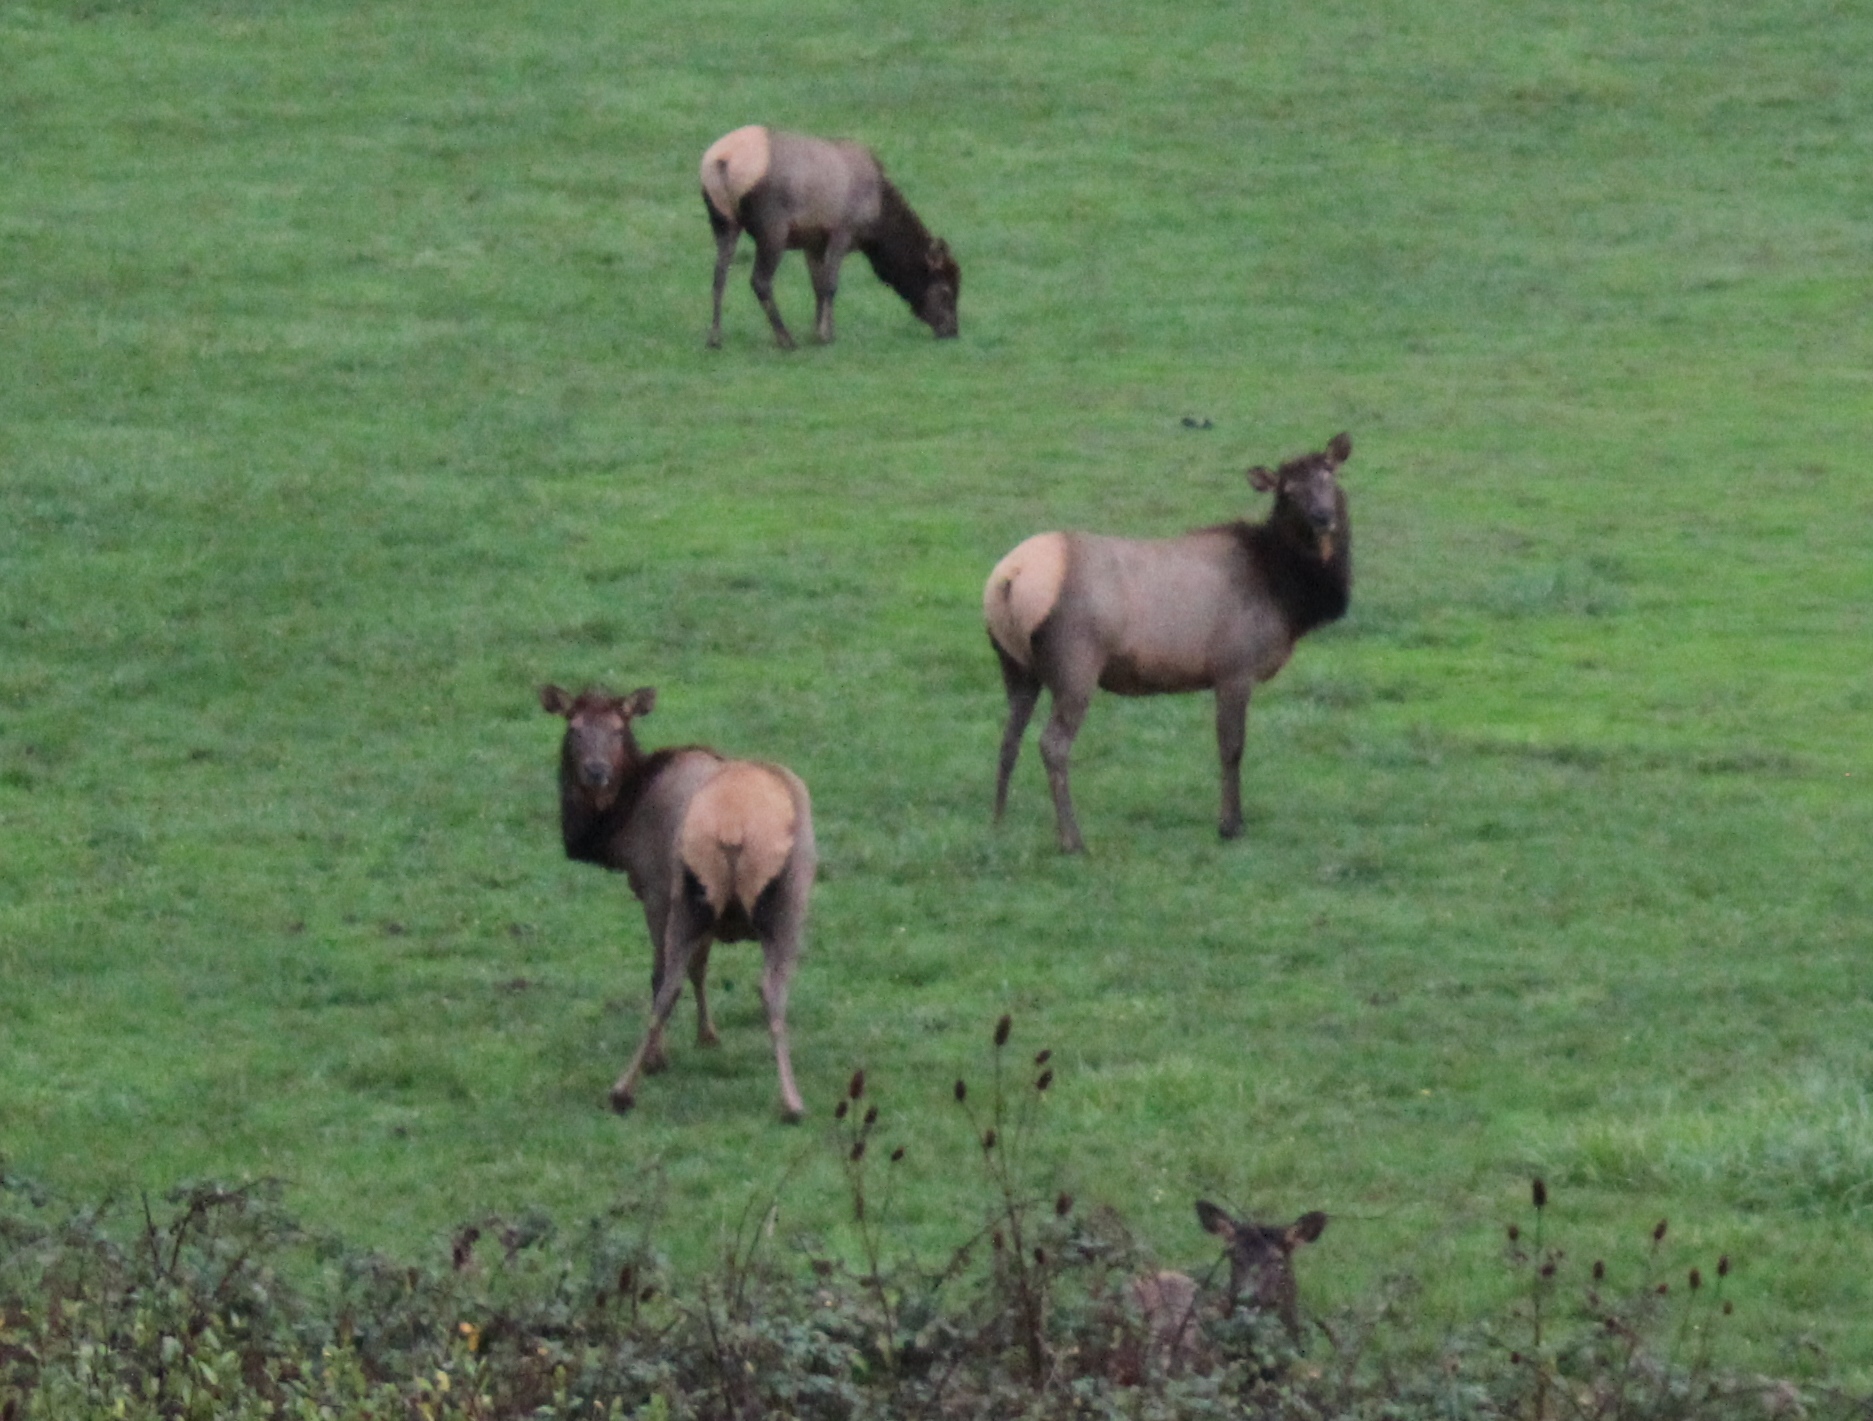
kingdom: Animalia
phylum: Chordata
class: Mammalia
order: Artiodactyla
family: Cervidae
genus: Cervus
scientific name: Cervus elaphus
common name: Red deer
